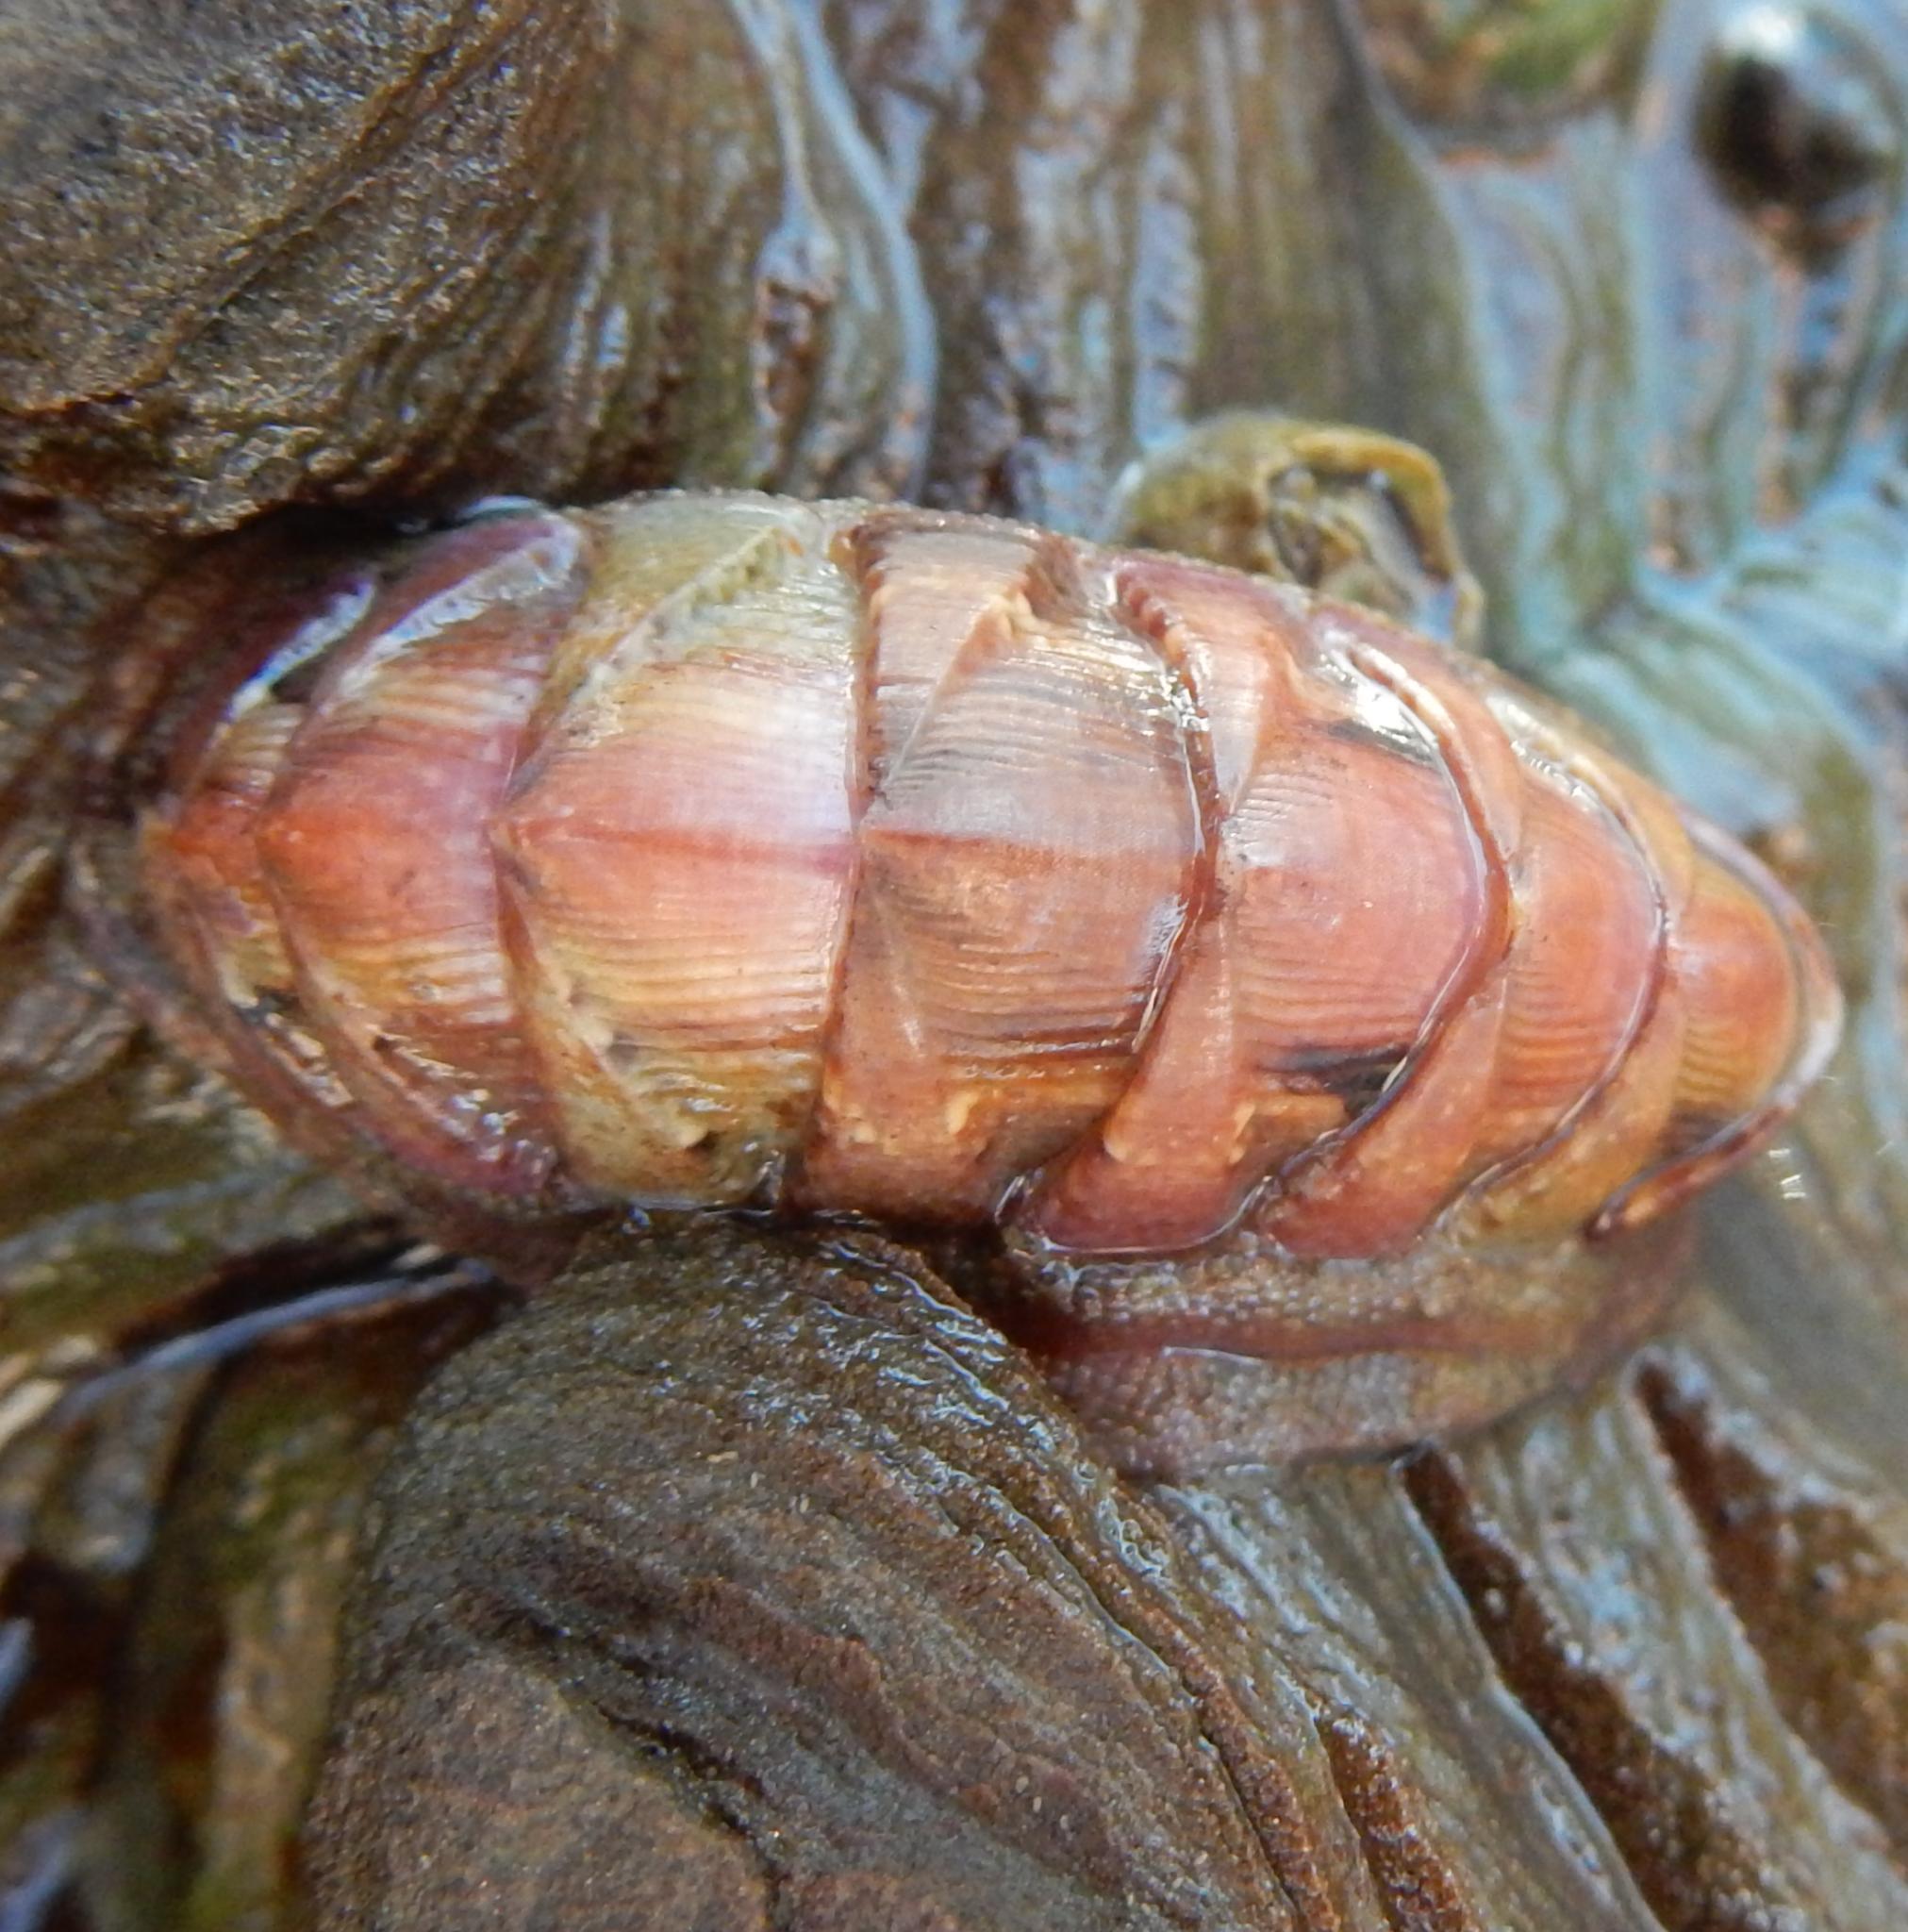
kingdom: Animalia
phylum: Mollusca
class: Polyplacophora
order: Chitonida
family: Chitonidae
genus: Rhyssoplax
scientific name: Rhyssoplax crawfordi
